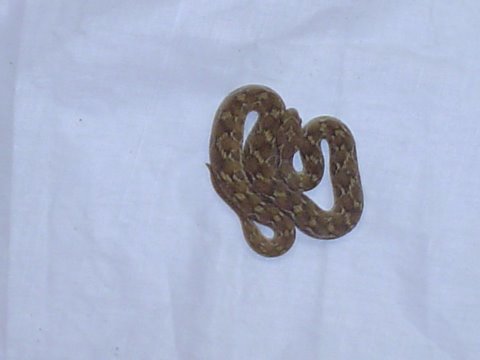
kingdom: Animalia
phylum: Chordata
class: Squamata
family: Viperidae
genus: Echis
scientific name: Echis carinatus
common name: Saw-scaled viper
